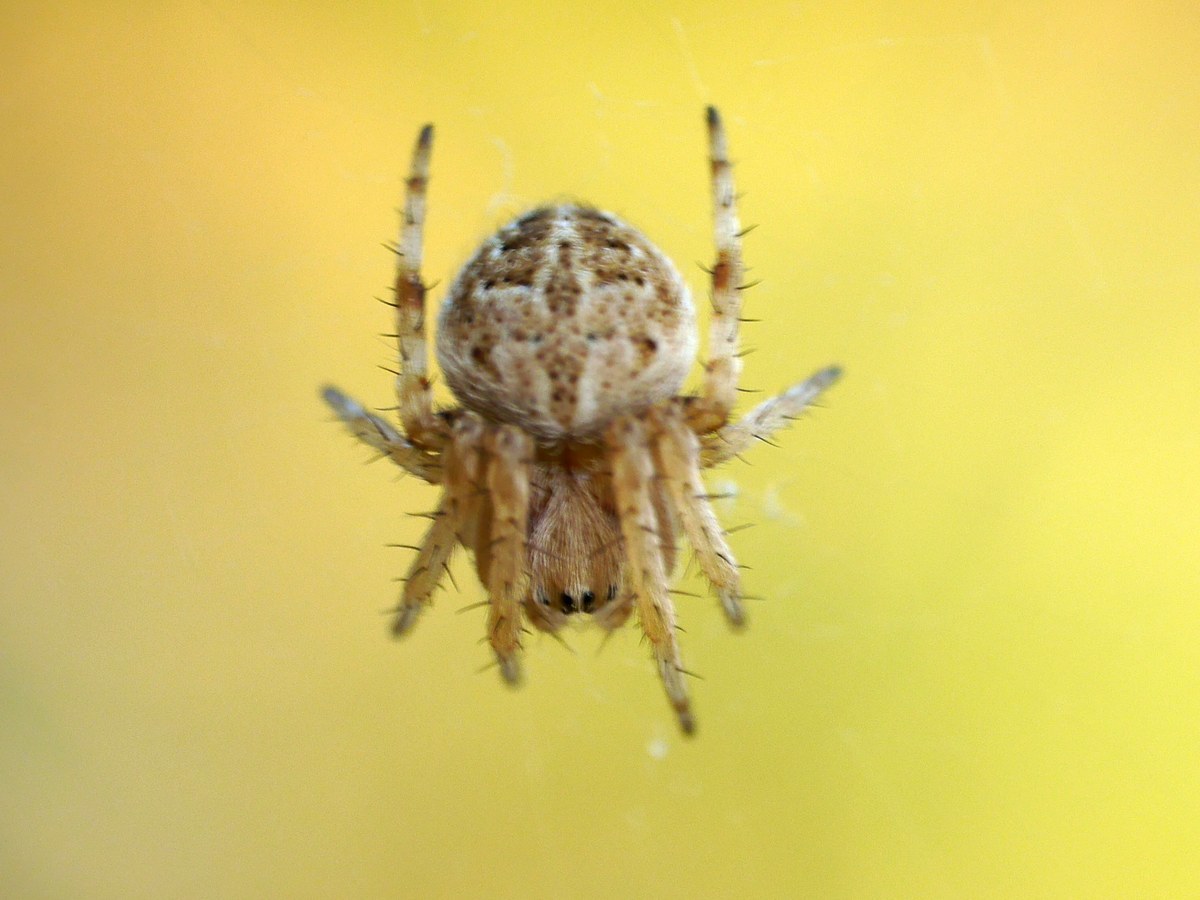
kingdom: Animalia
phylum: Arthropoda
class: Arachnida
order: Araneae
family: Araneidae
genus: Agalenatea
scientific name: Agalenatea redii
